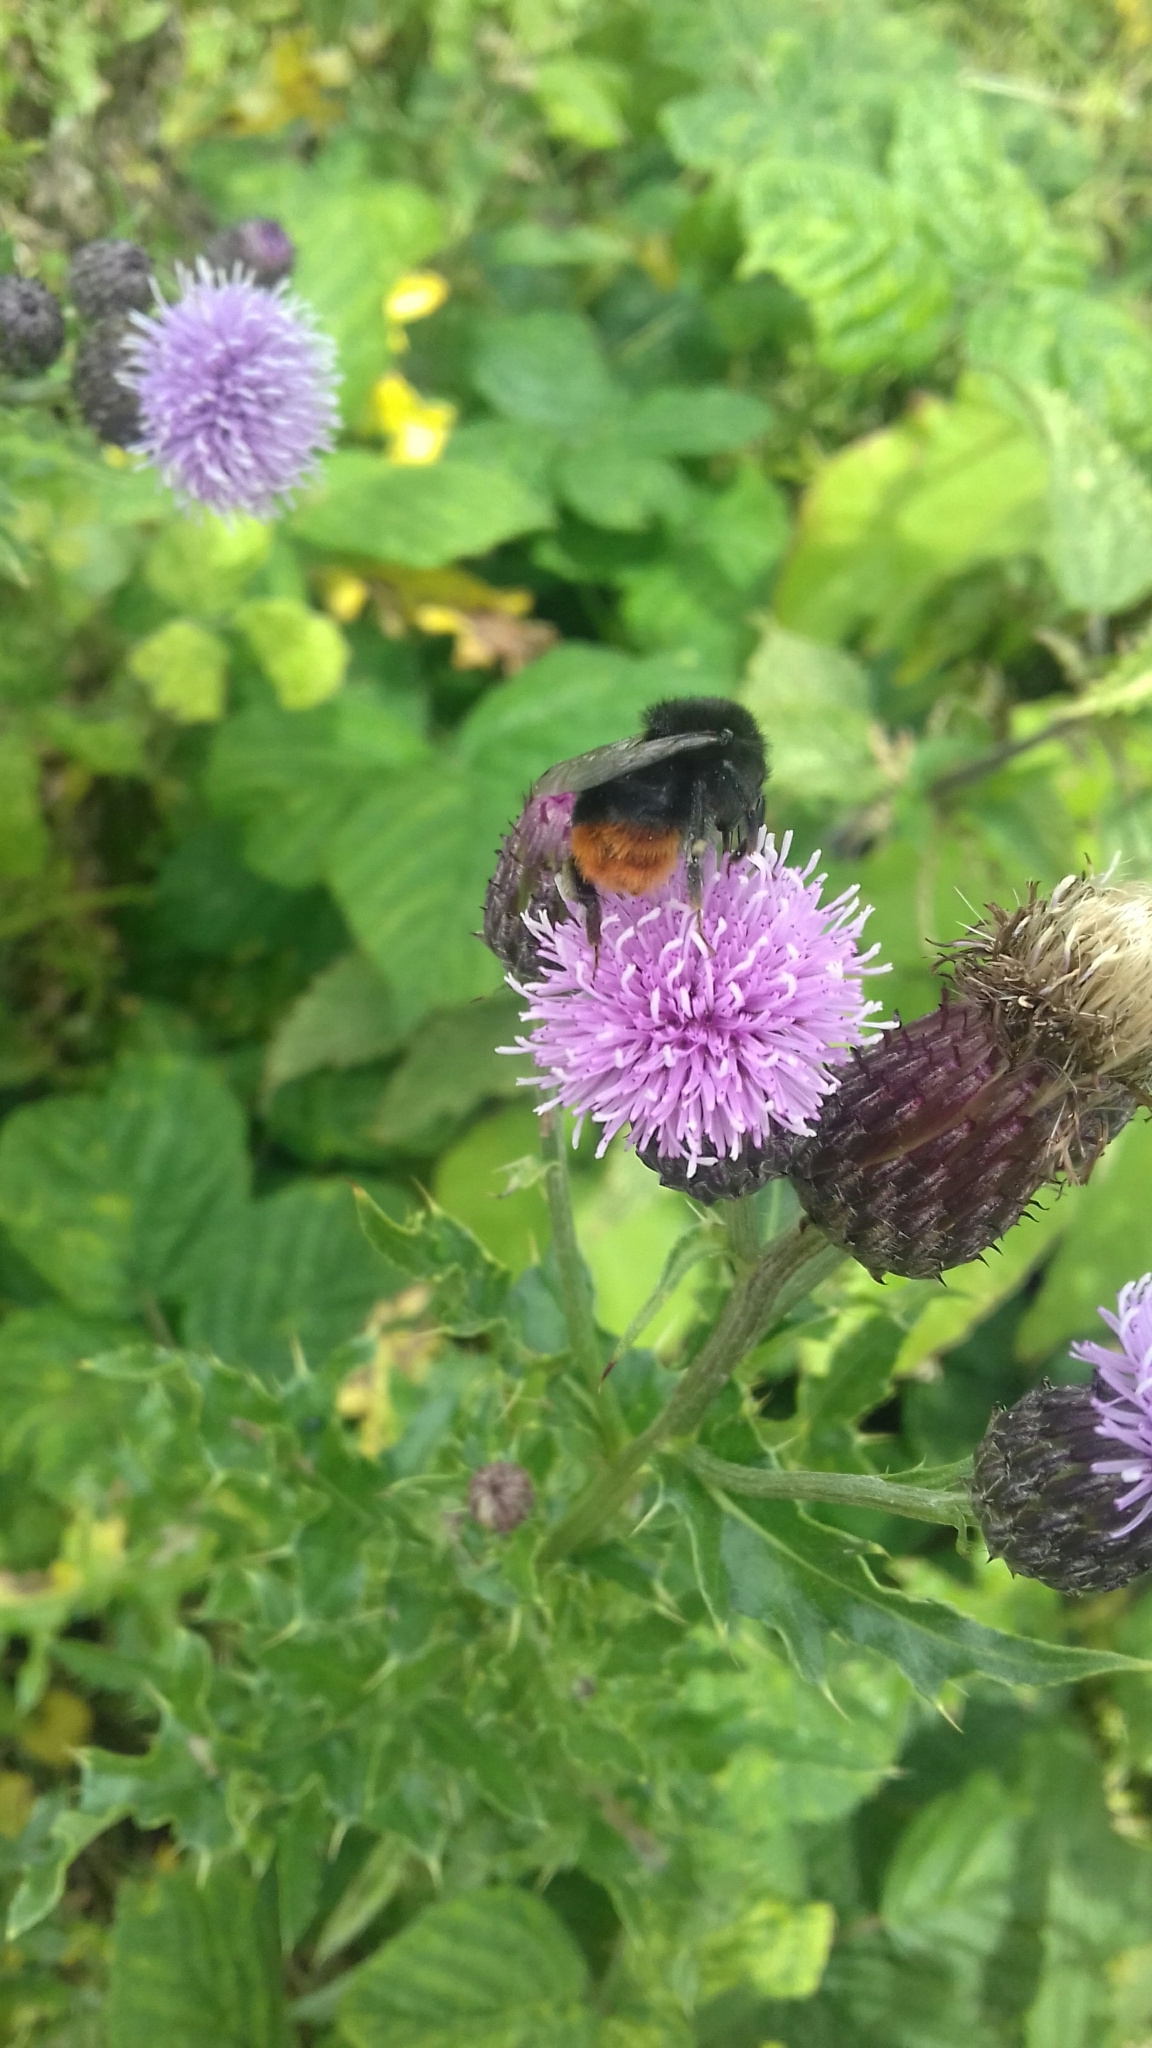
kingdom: Animalia
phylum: Arthropoda
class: Insecta
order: Hymenoptera
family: Apidae
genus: Bombus
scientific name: Bombus lapidarius
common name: Large red-tailed humble-bee
